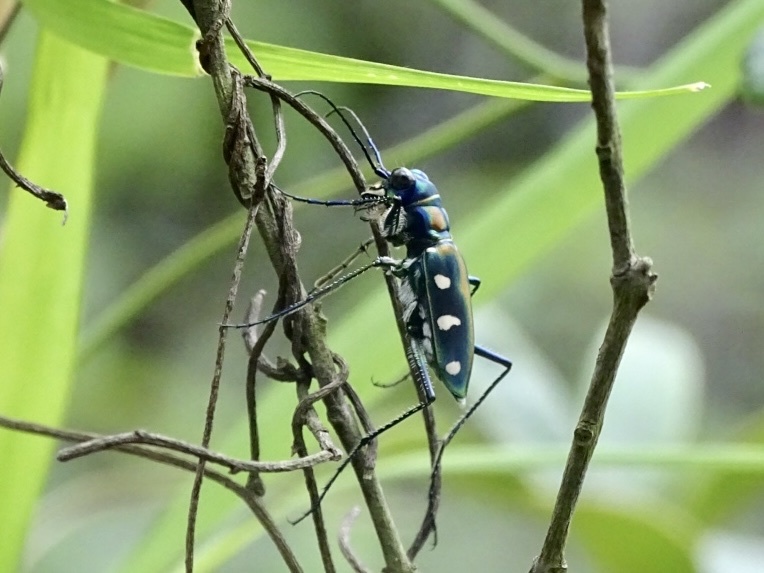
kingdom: Animalia
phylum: Arthropoda
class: Insecta
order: Coleoptera
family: Carabidae
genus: Cicindela
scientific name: Cicindela juxtata
